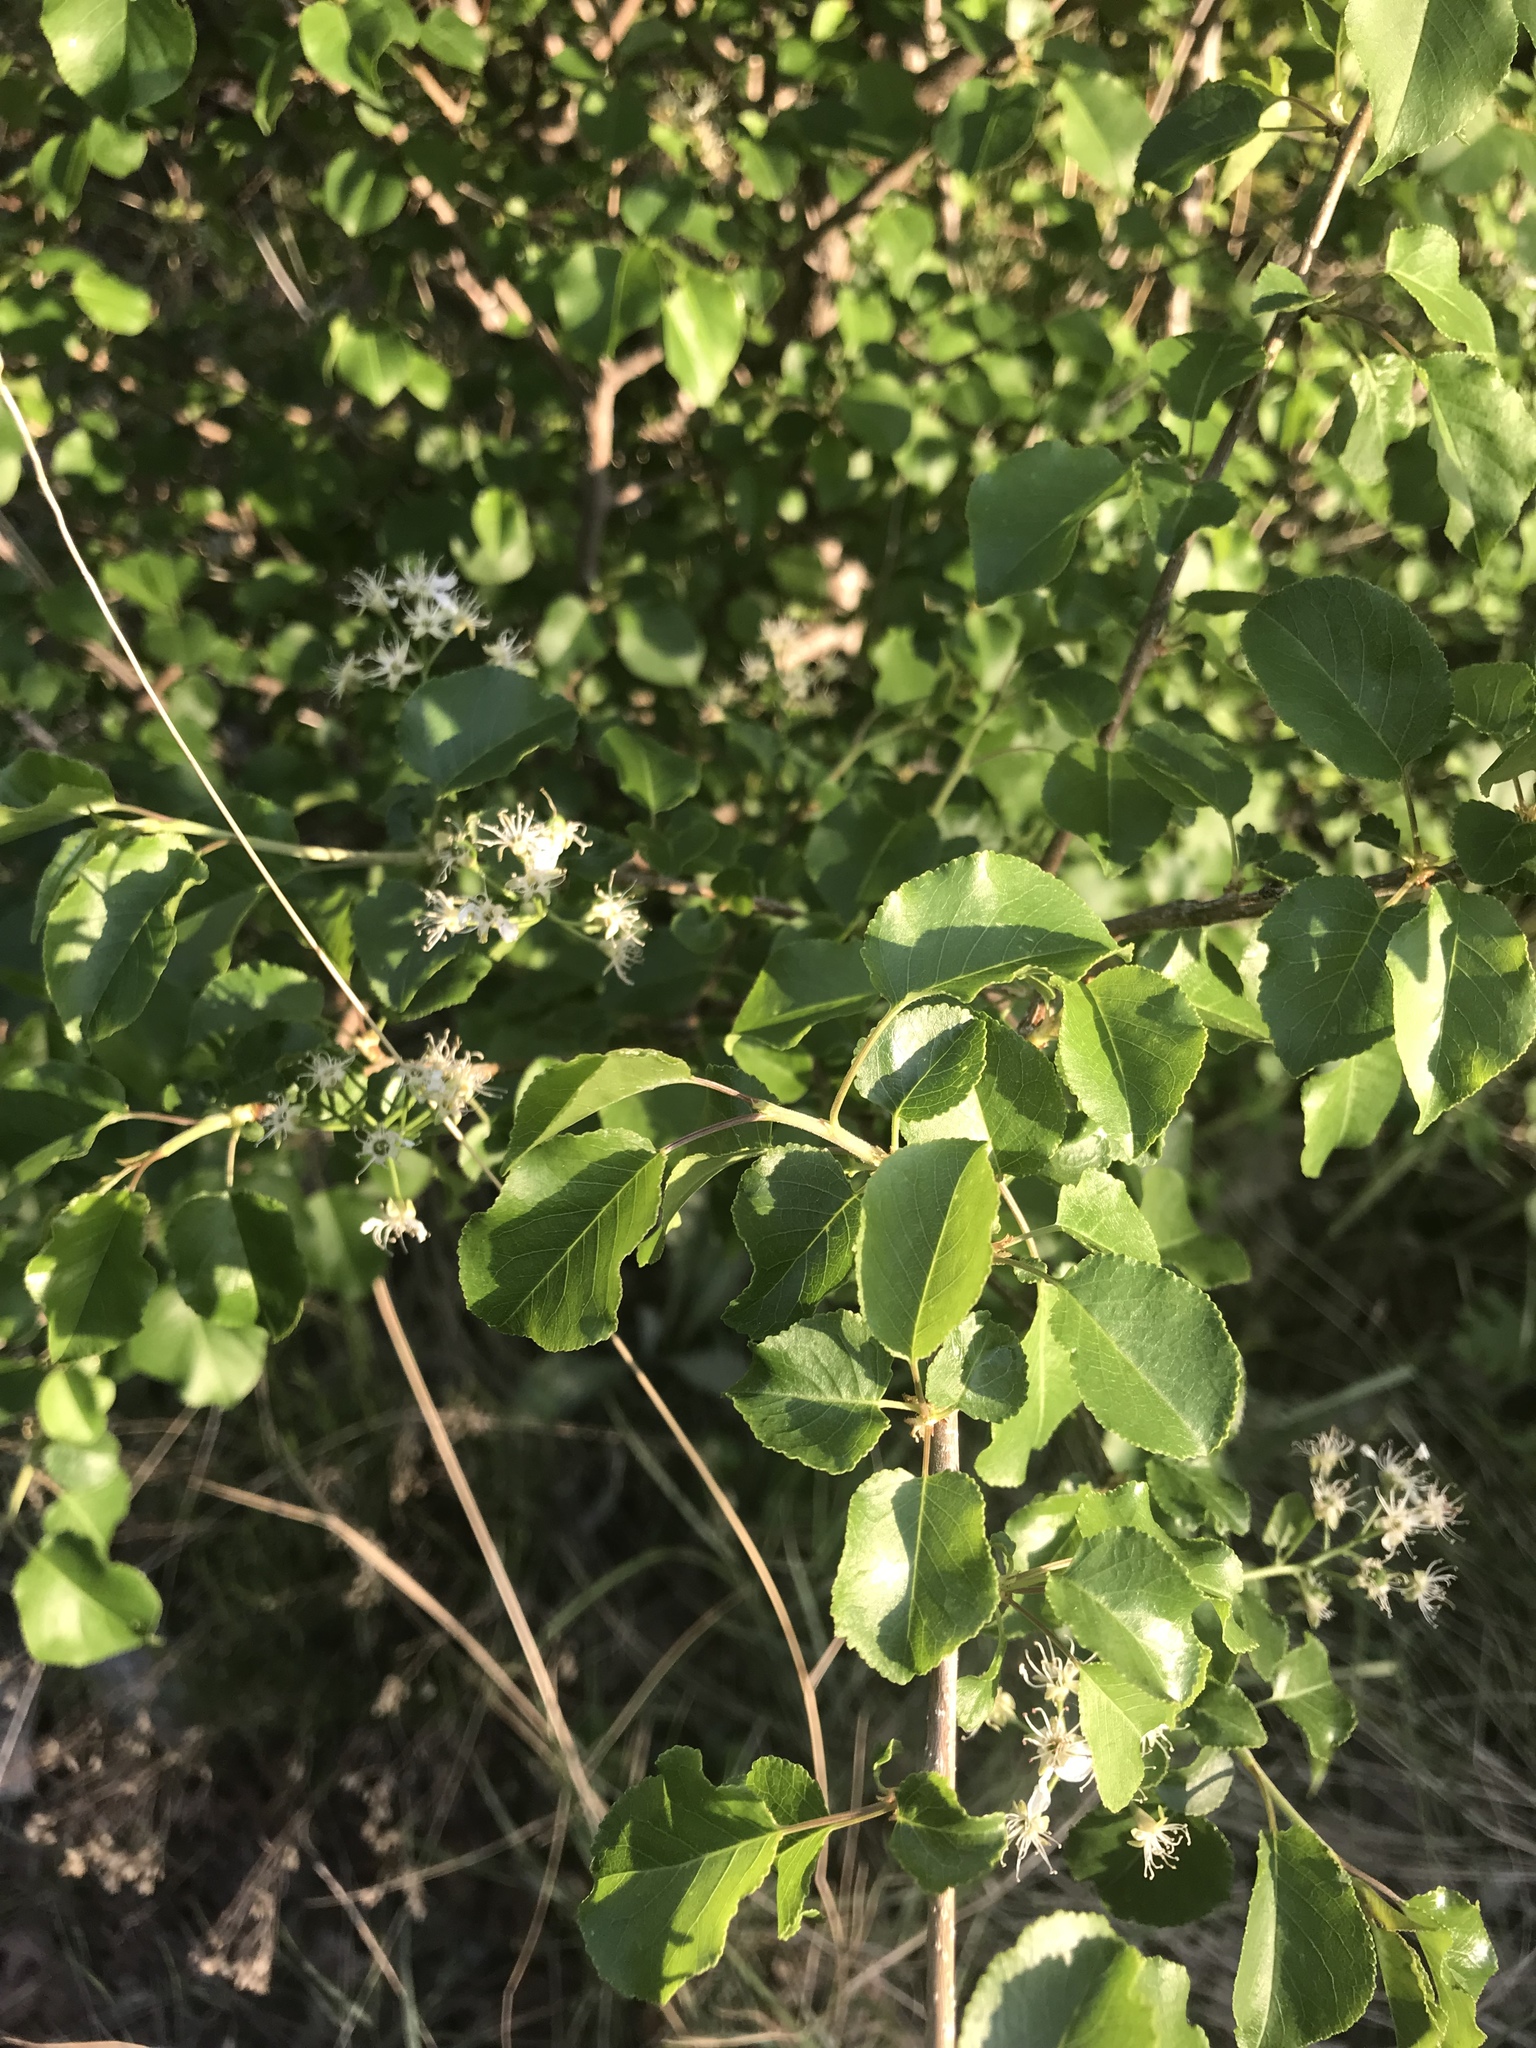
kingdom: Plantae
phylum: Tracheophyta
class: Magnoliopsida
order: Rosales
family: Rosaceae
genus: Prunus
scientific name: Prunus mahaleb
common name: Mahaleb cherry
